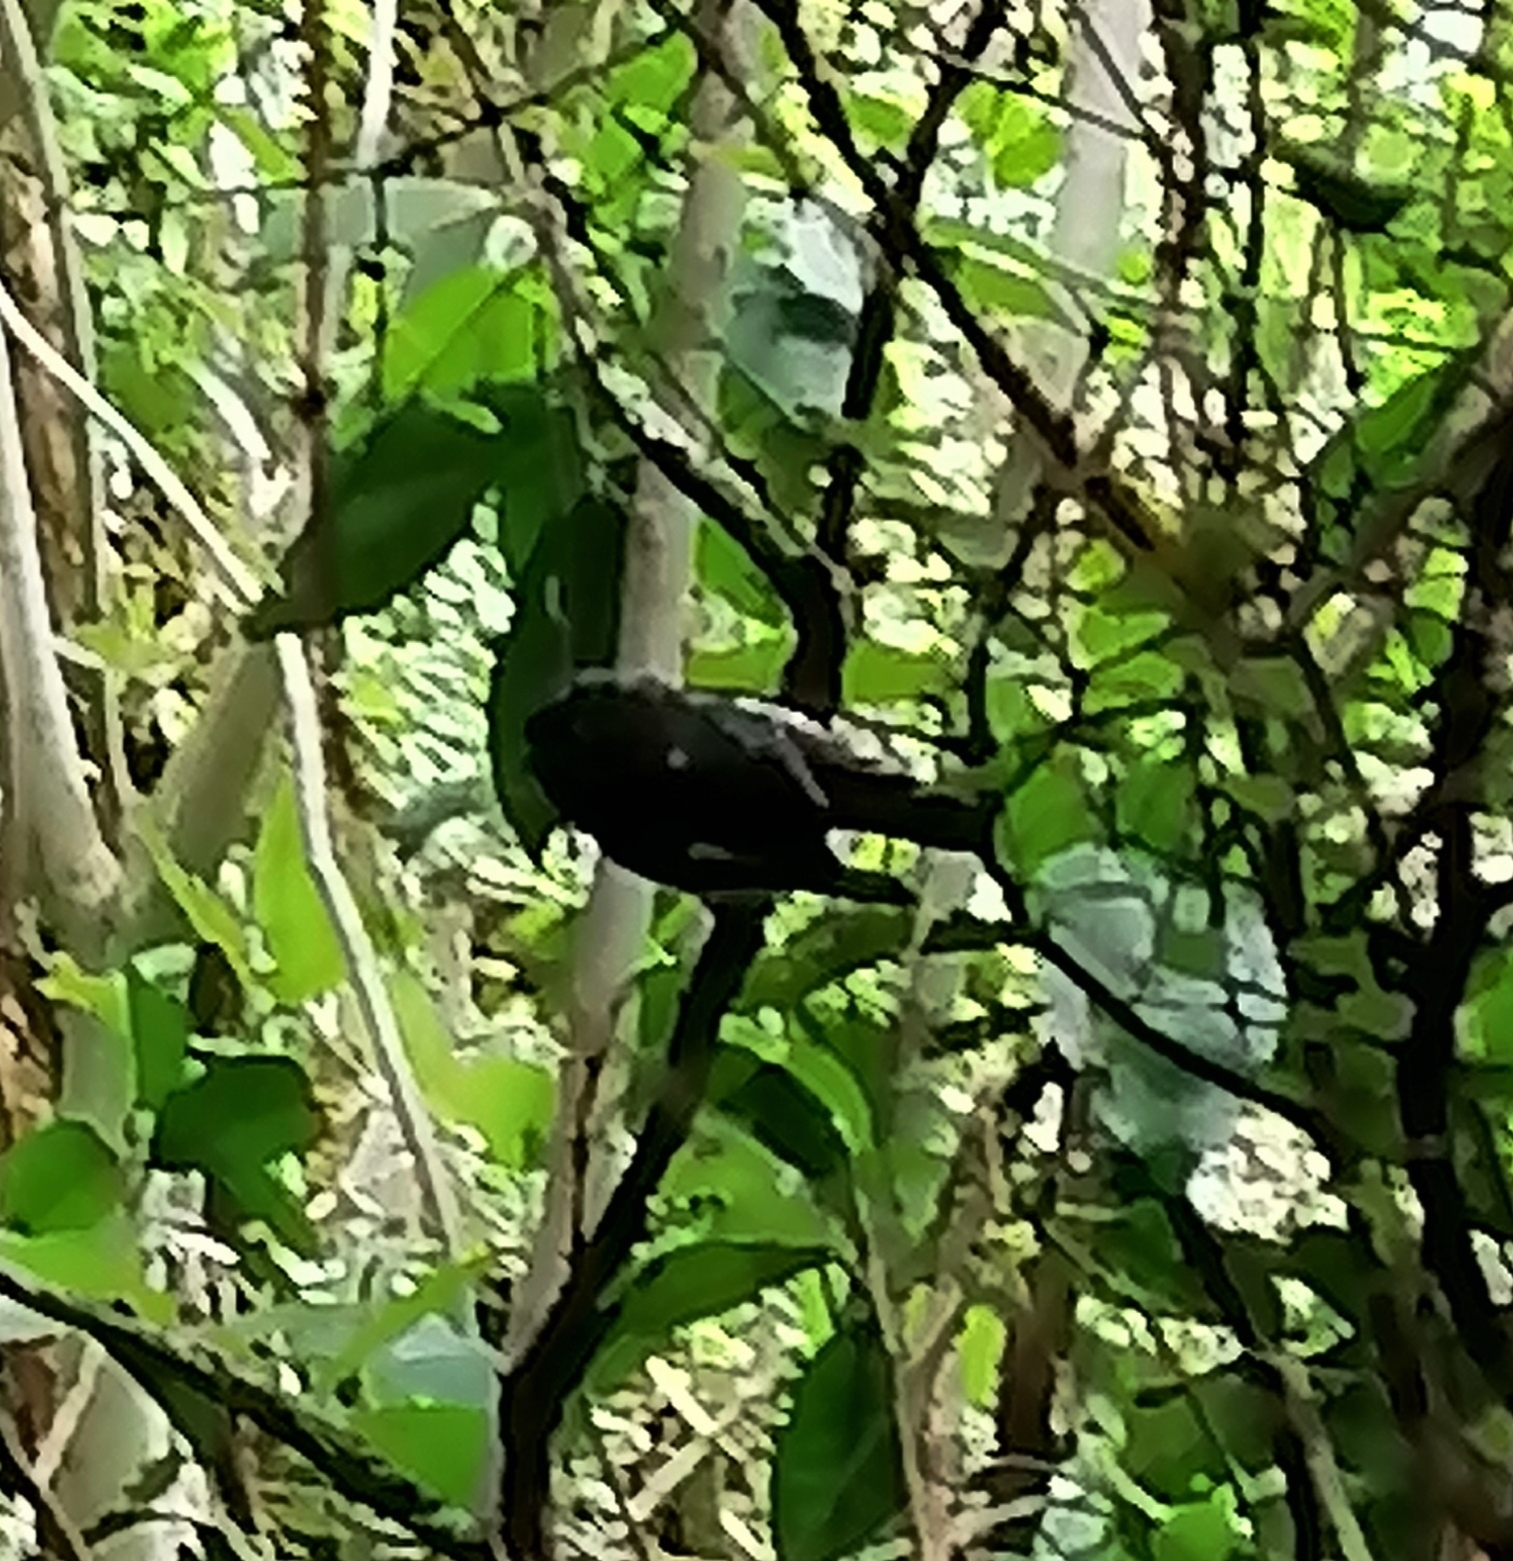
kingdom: Animalia
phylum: Chordata
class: Aves
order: Passeriformes
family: Petroicidae
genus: Petroica
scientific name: Petroica macrocephala
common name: Tomtit
